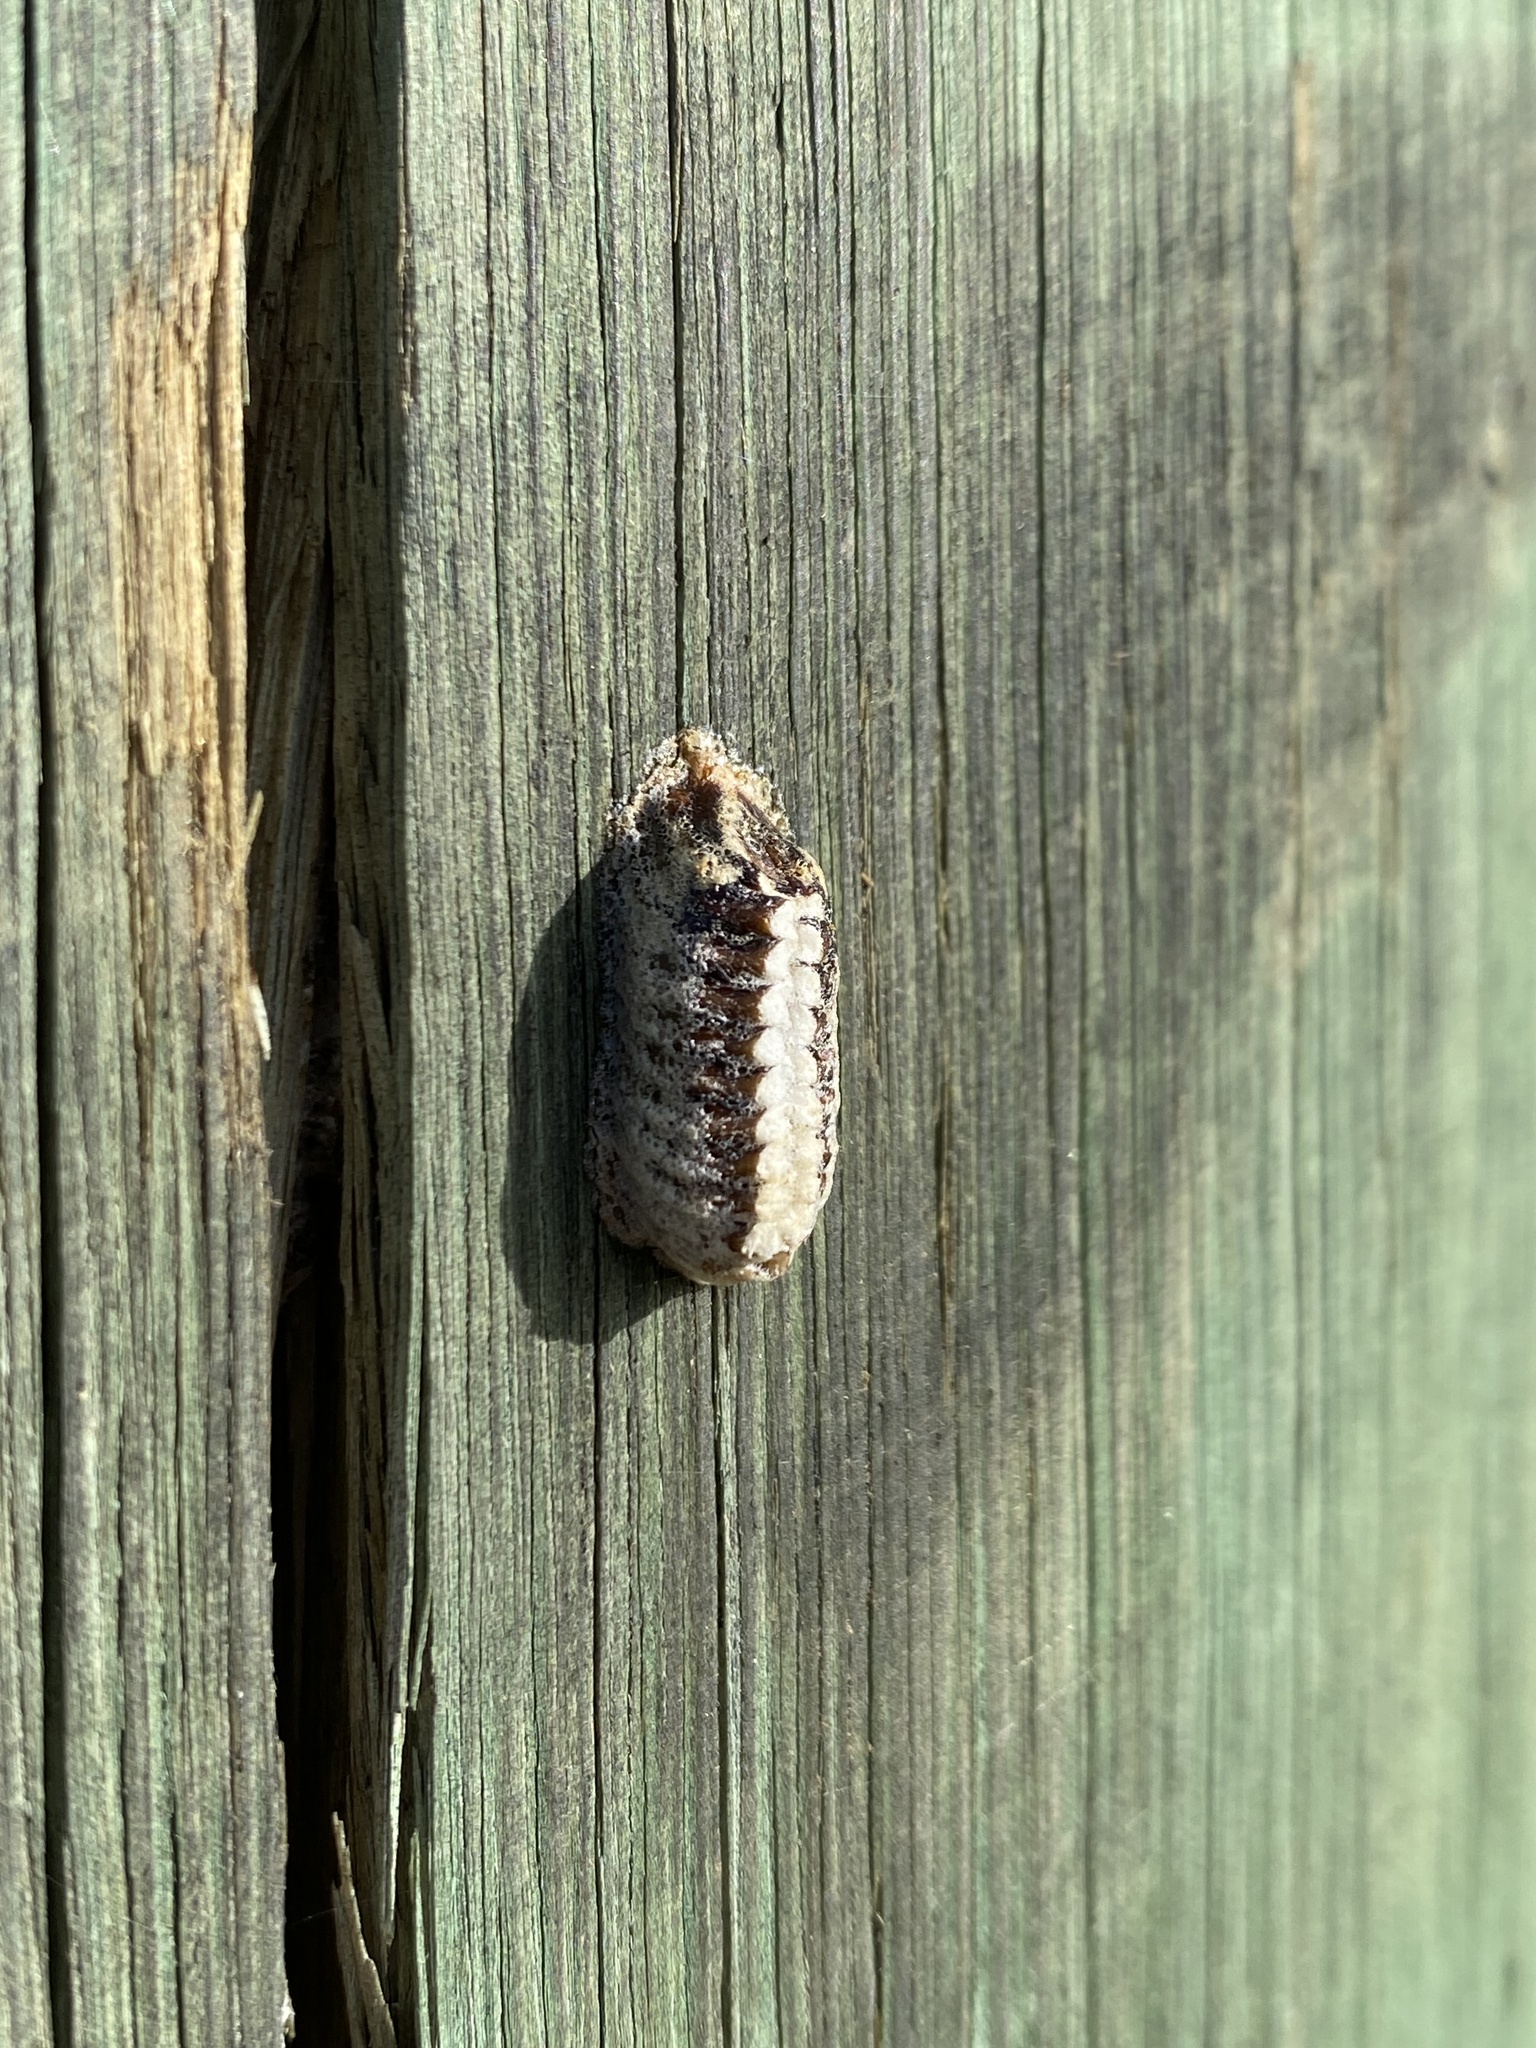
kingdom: Animalia
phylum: Arthropoda
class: Insecta
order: Mantodea
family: Mantidae
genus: Orthodera
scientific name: Orthodera novaezealandiae
